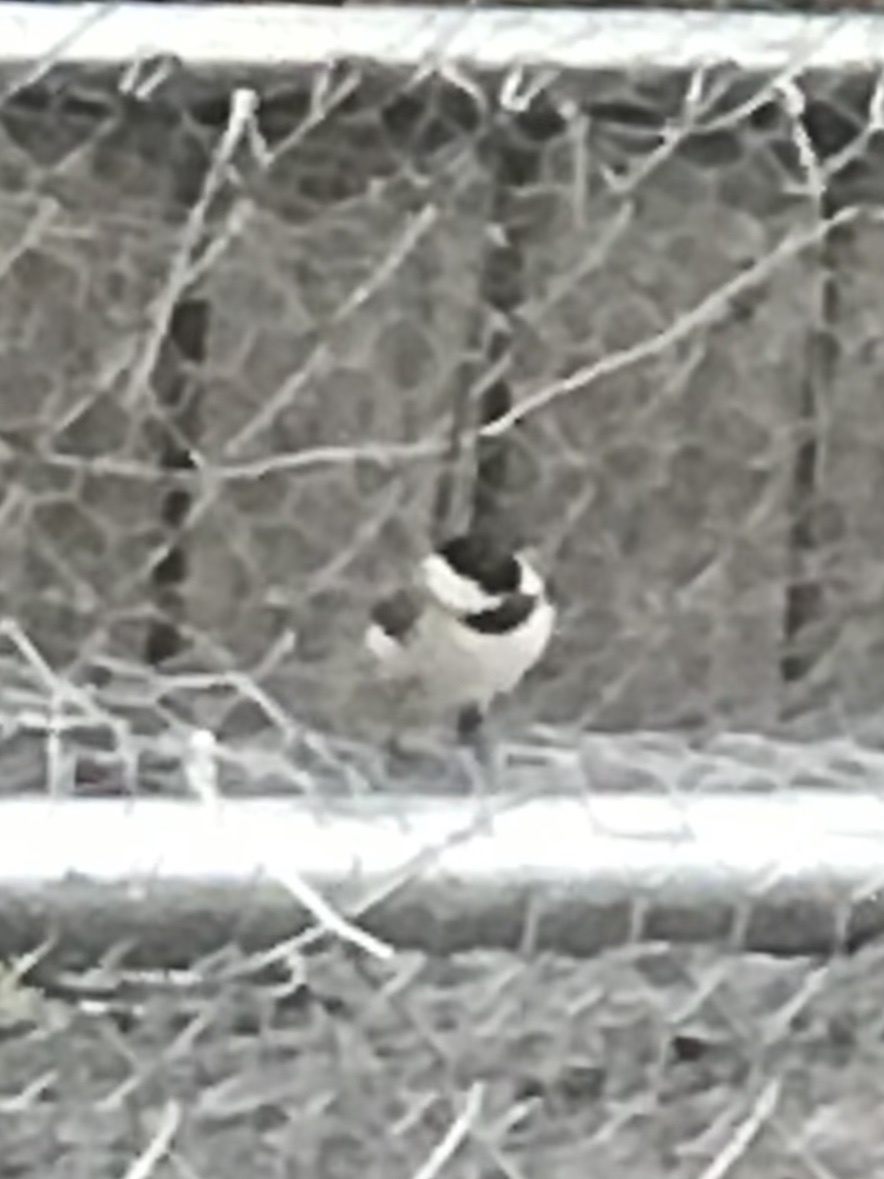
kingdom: Animalia
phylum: Chordata
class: Aves
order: Passeriformes
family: Paridae
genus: Poecile
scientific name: Poecile carolinensis
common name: Carolina chickadee
